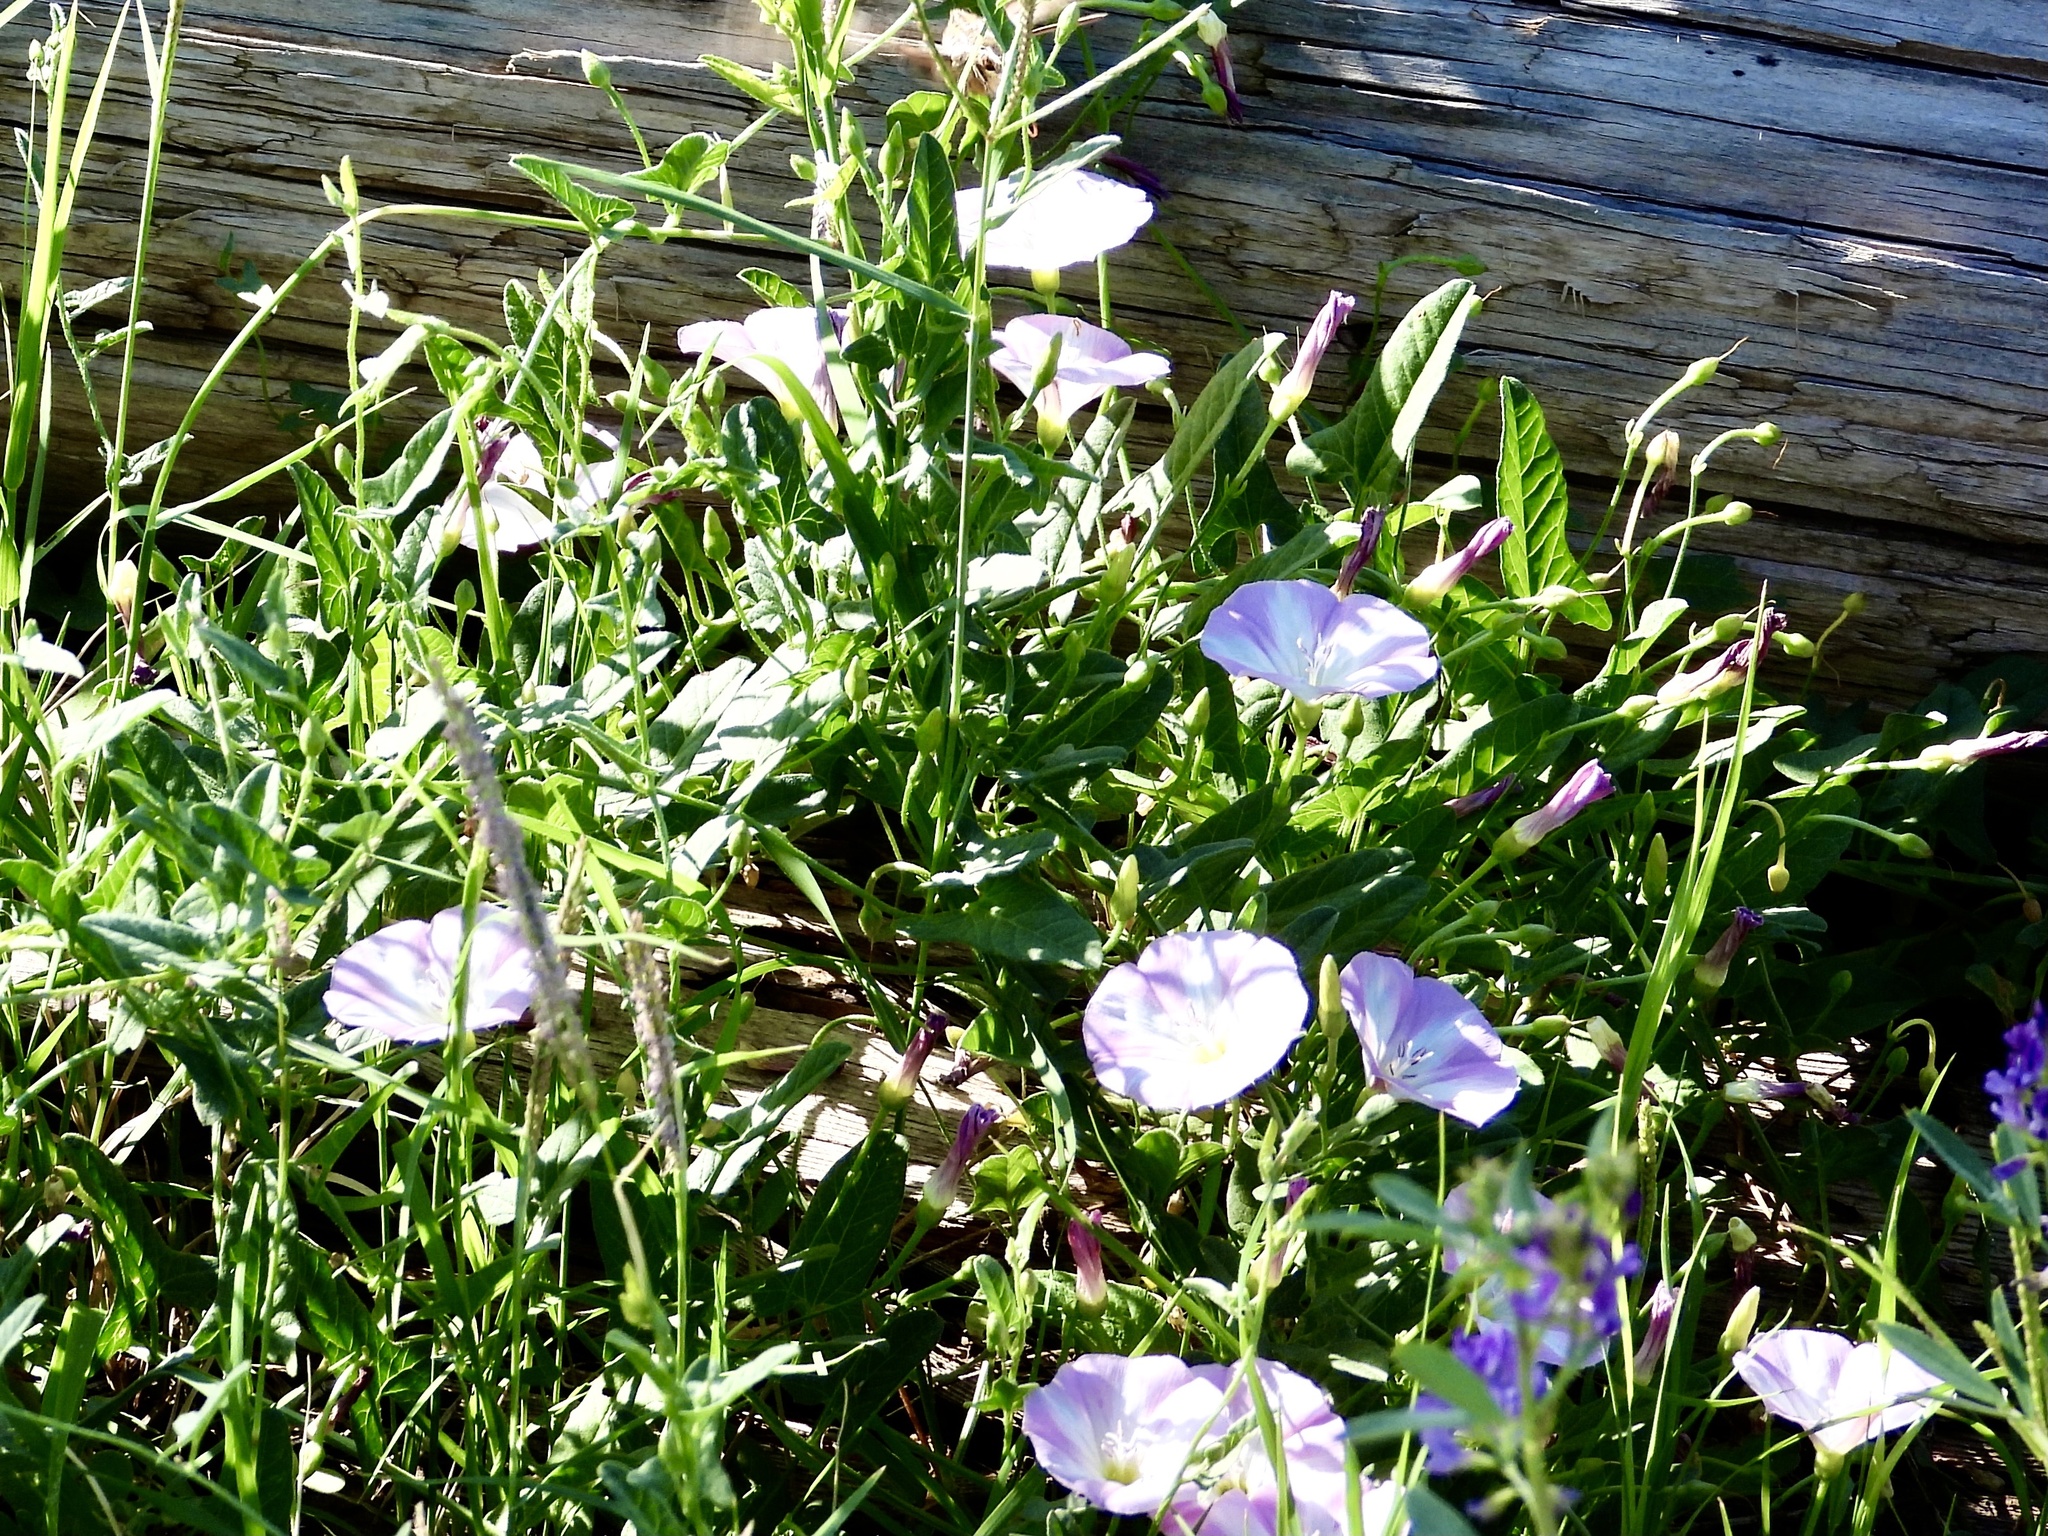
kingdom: Plantae
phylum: Tracheophyta
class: Magnoliopsida
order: Solanales
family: Convolvulaceae
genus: Convolvulus
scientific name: Convolvulus arvensis
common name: Field bindweed
